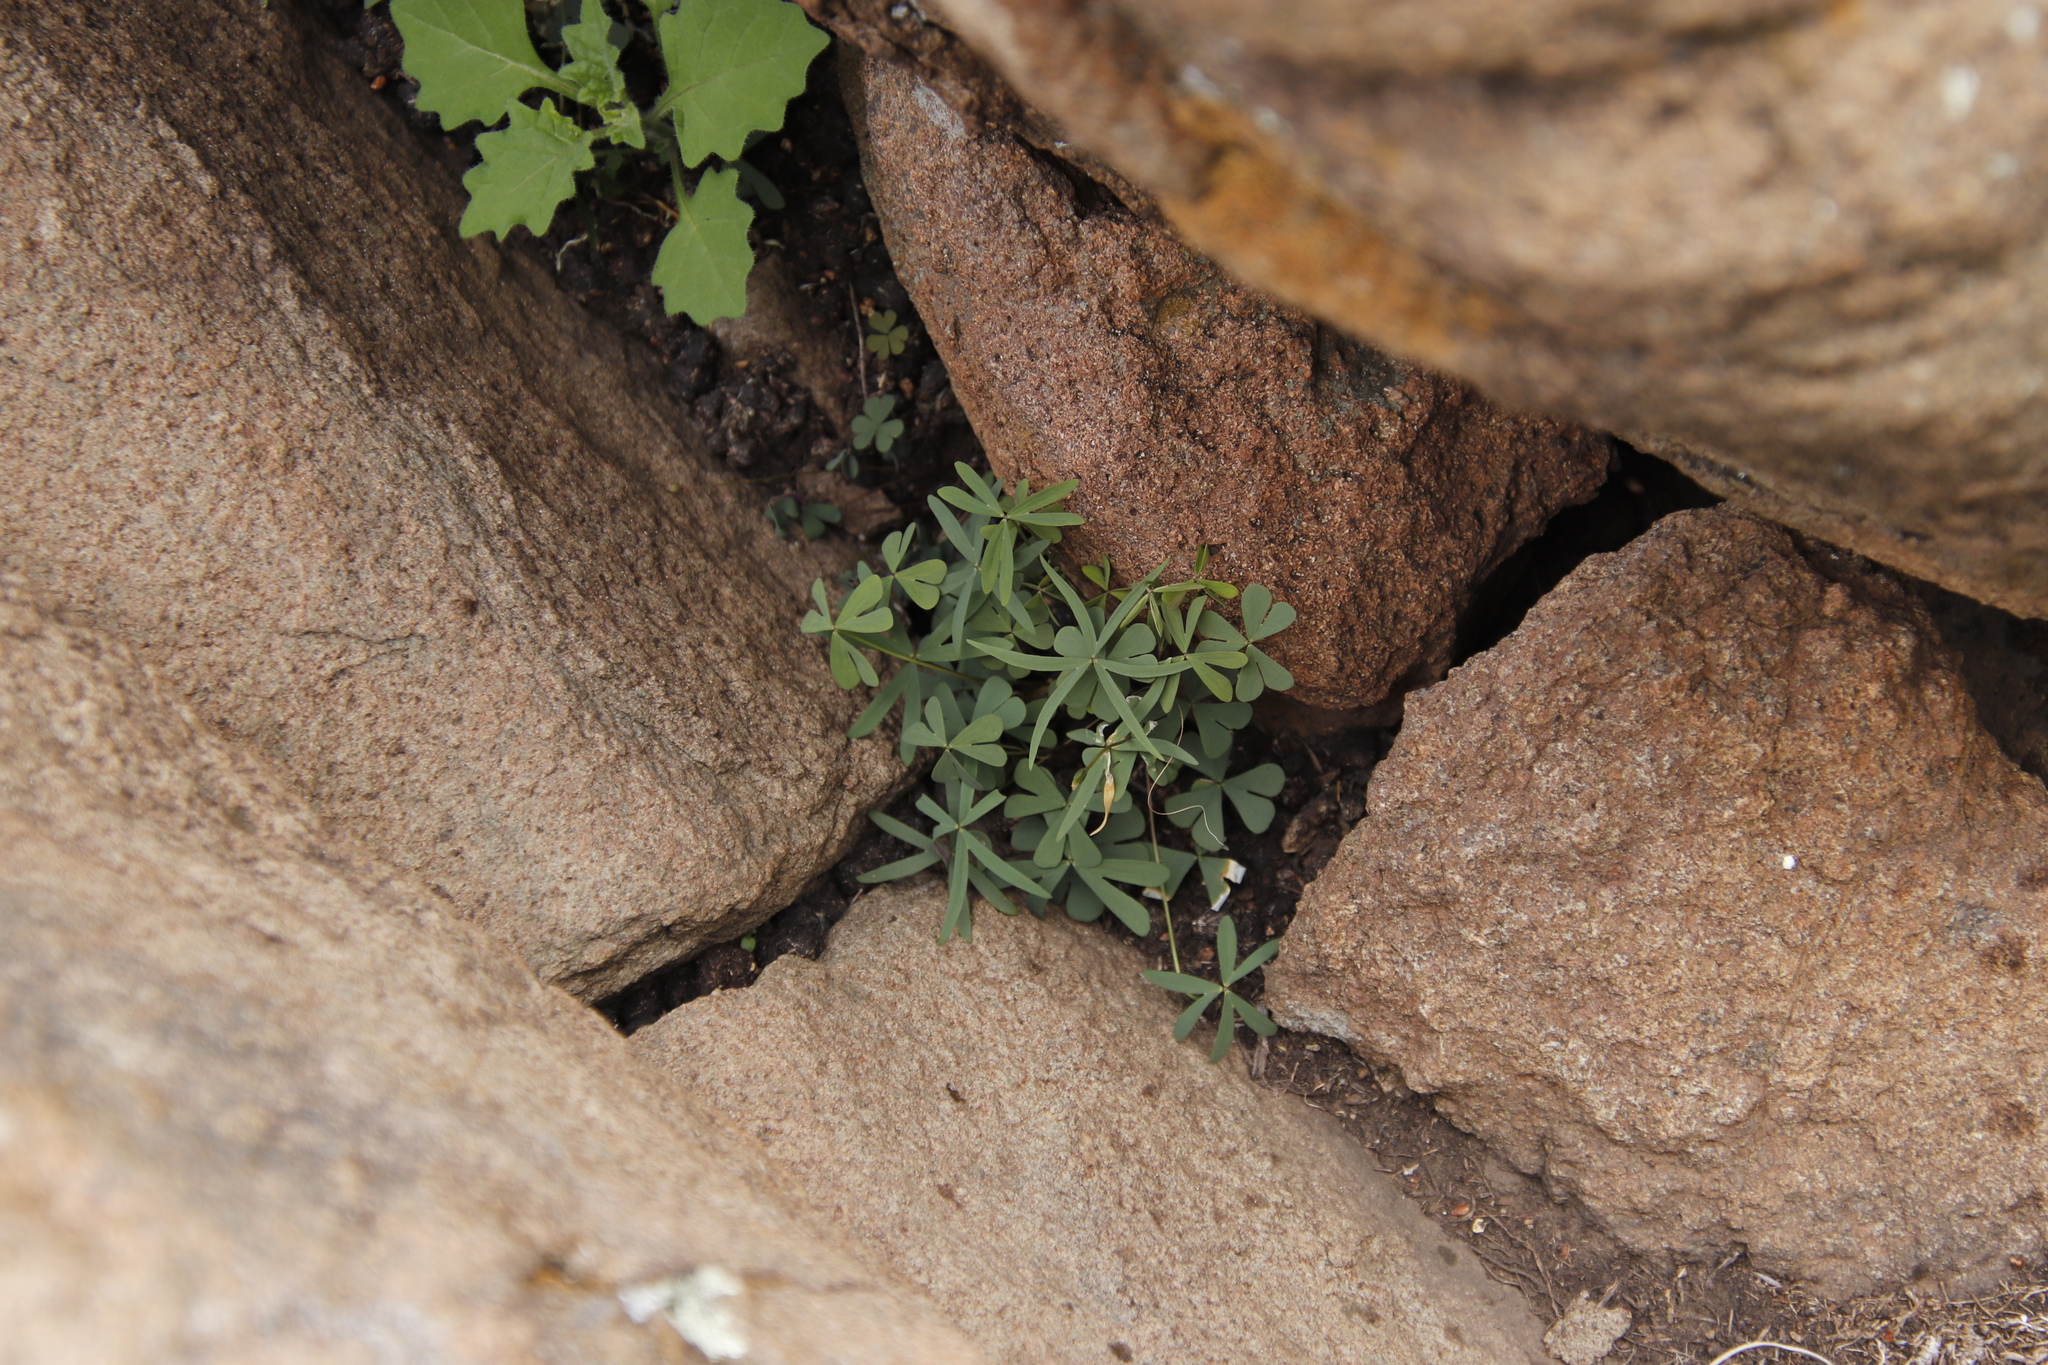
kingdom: Plantae
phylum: Tracheophyta
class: Magnoliopsida
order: Oxalidales
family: Oxalidaceae
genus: Oxalis
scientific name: Oxalis smithiana
